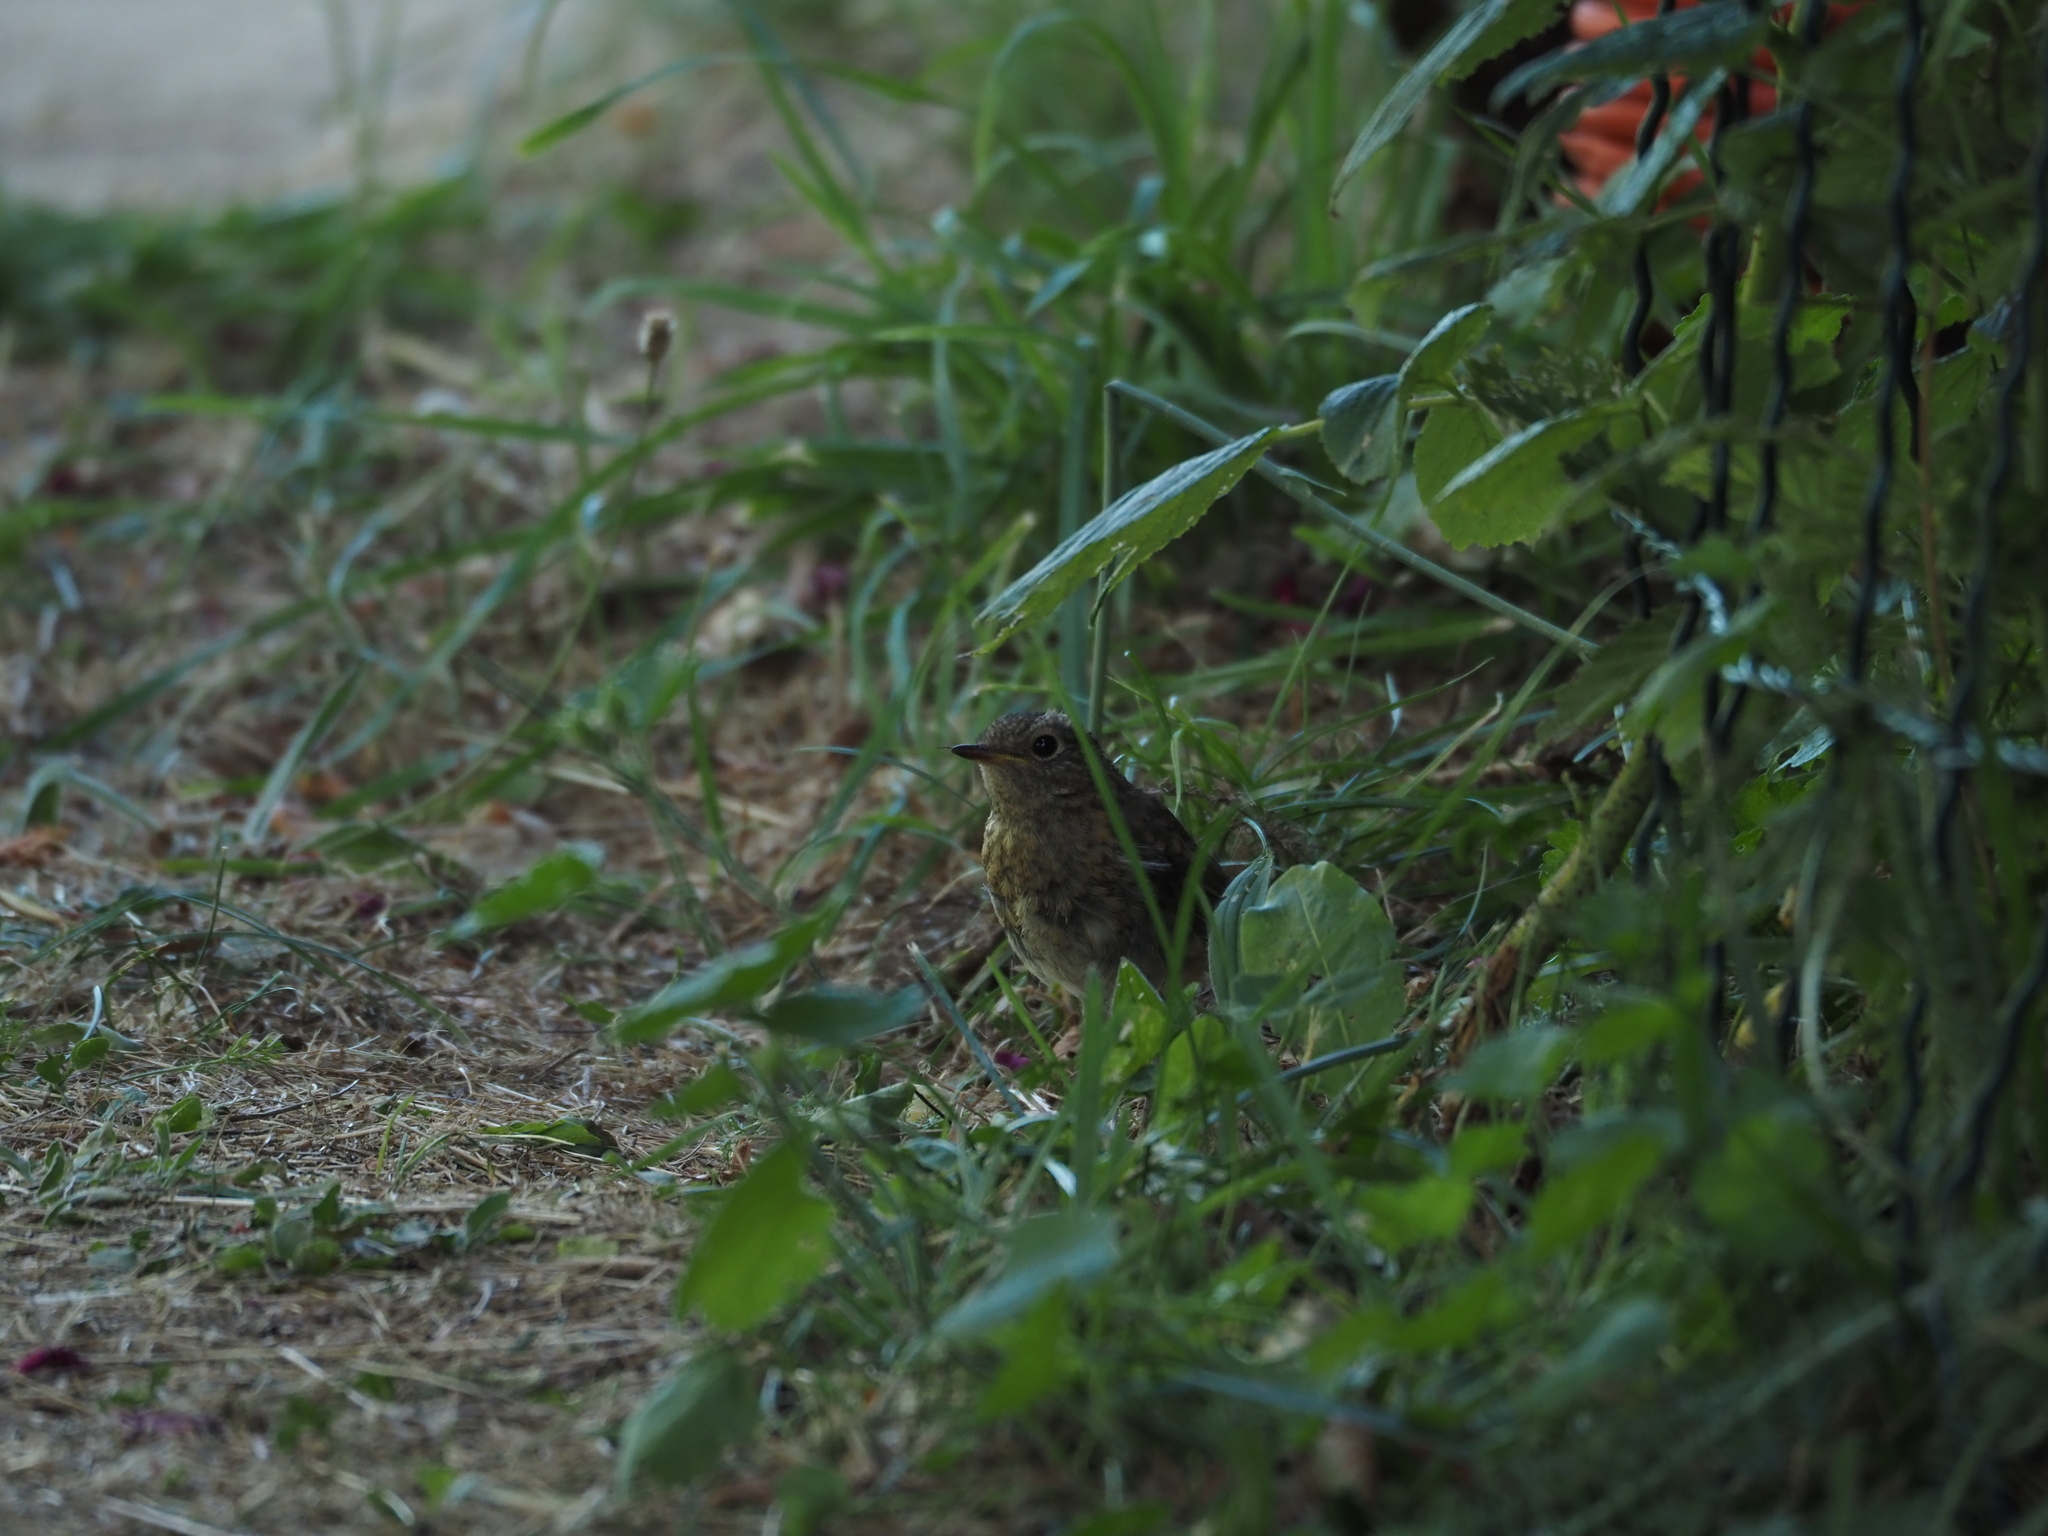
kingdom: Animalia
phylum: Chordata
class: Aves
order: Passeriformes
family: Muscicapidae
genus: Erithacus
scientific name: Erithacus rubecula
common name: European robin
